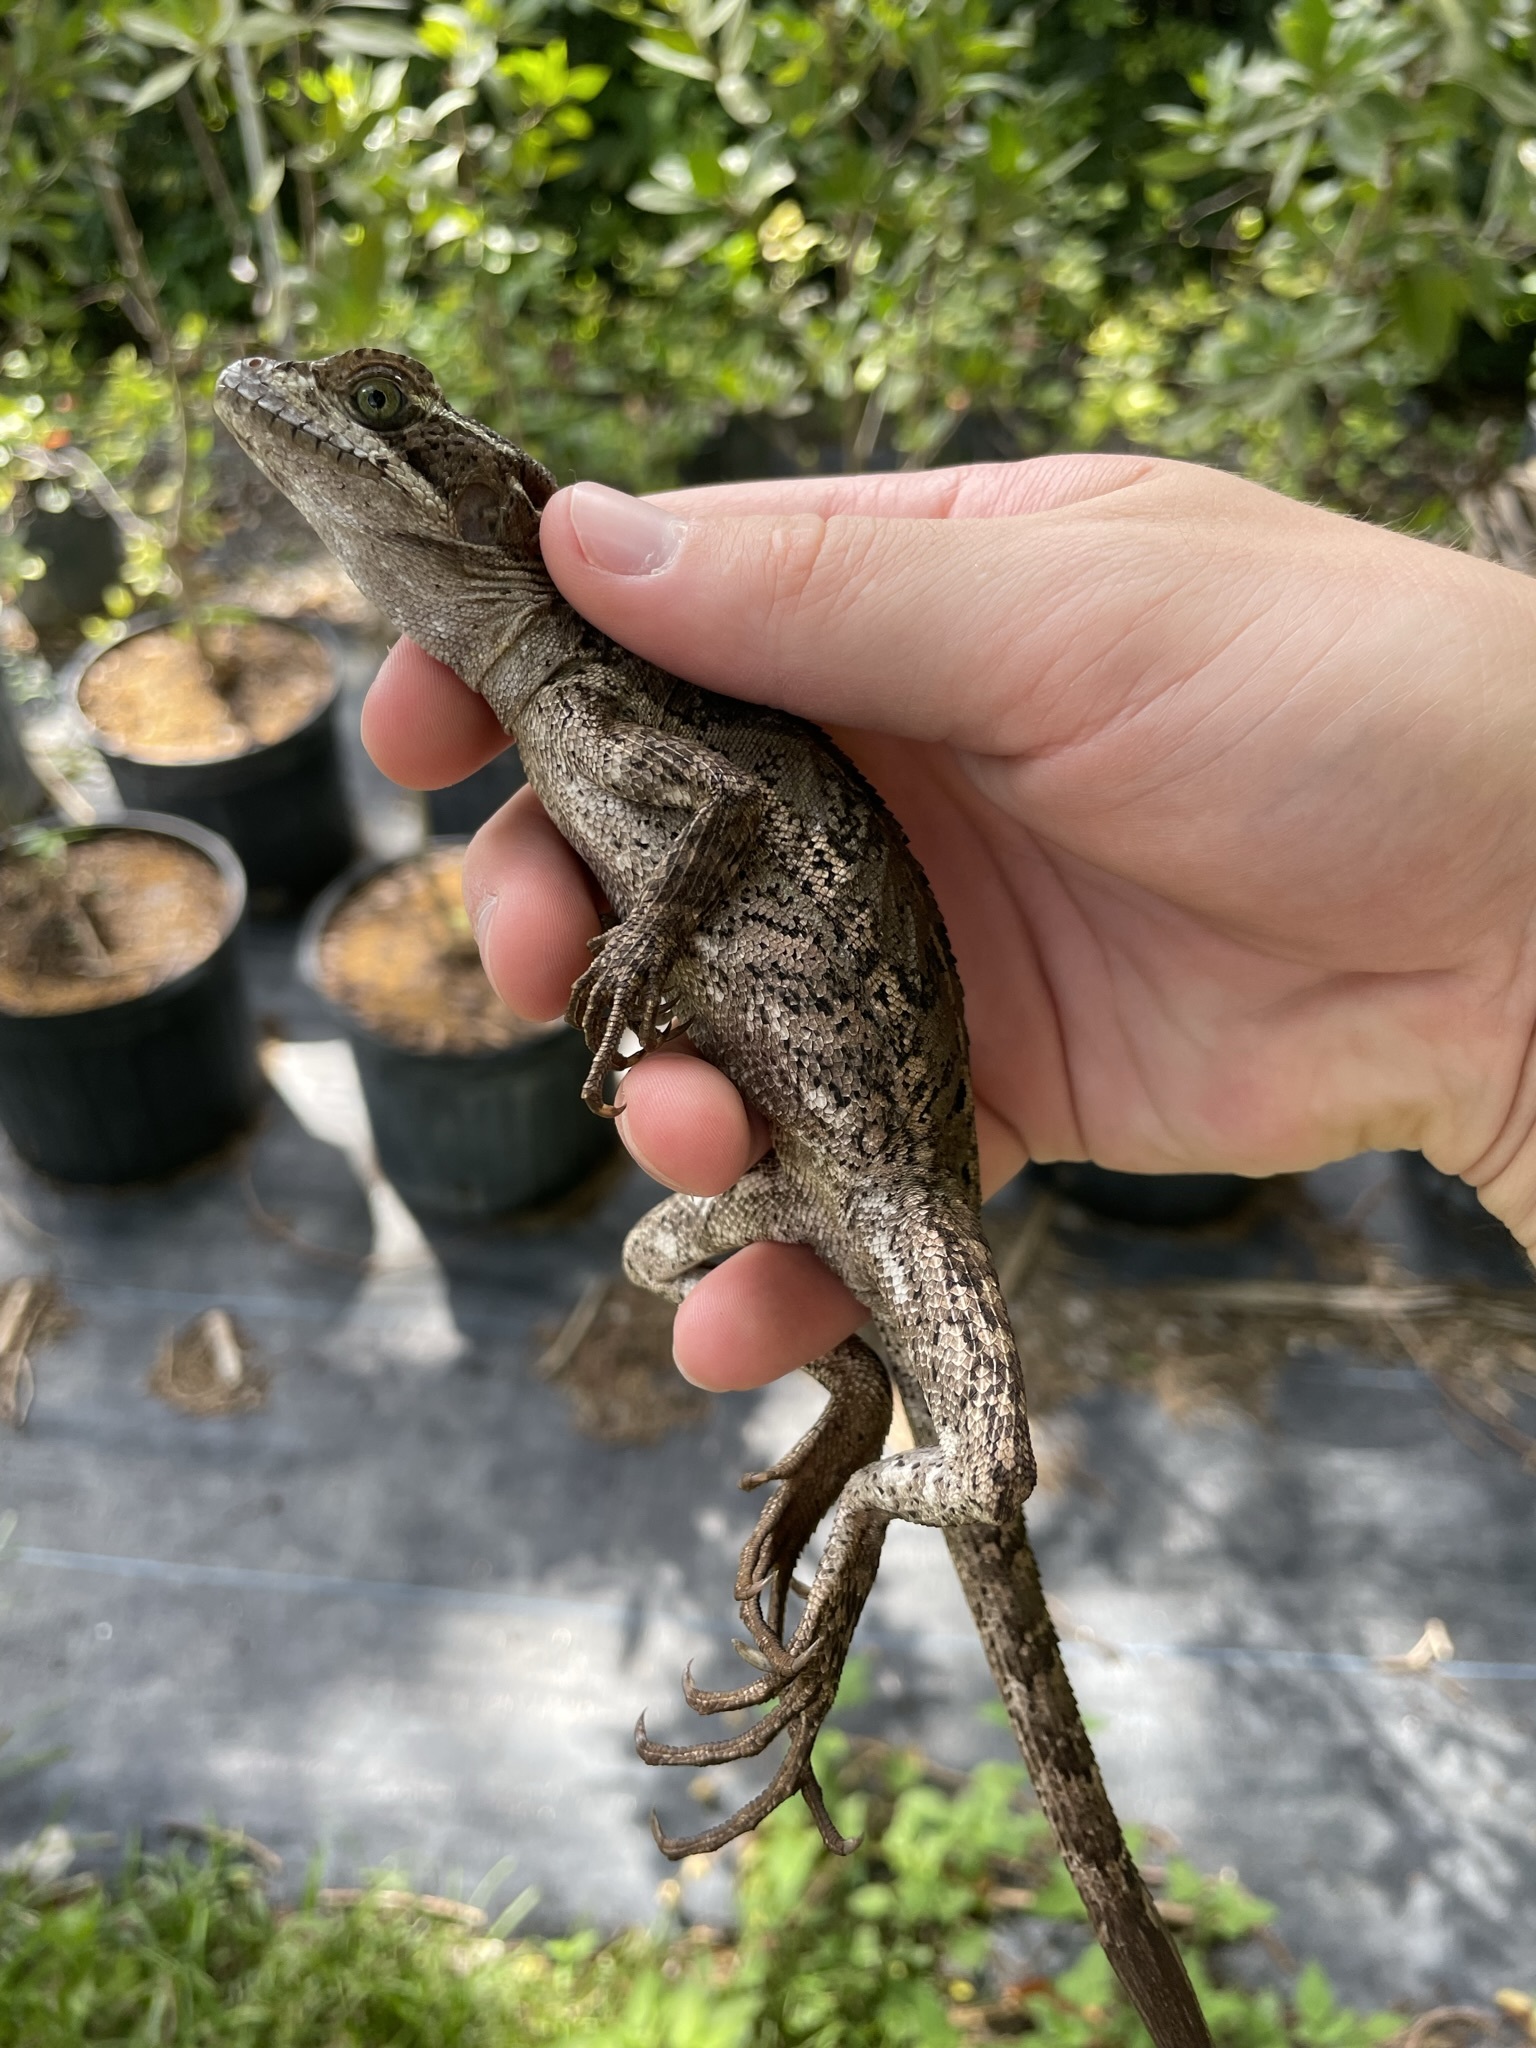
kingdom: Animalia
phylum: Chordata
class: Squamata
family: Corytophanidae
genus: Basiliscus
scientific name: Basiliscus vittatus
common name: Brown basilisk
